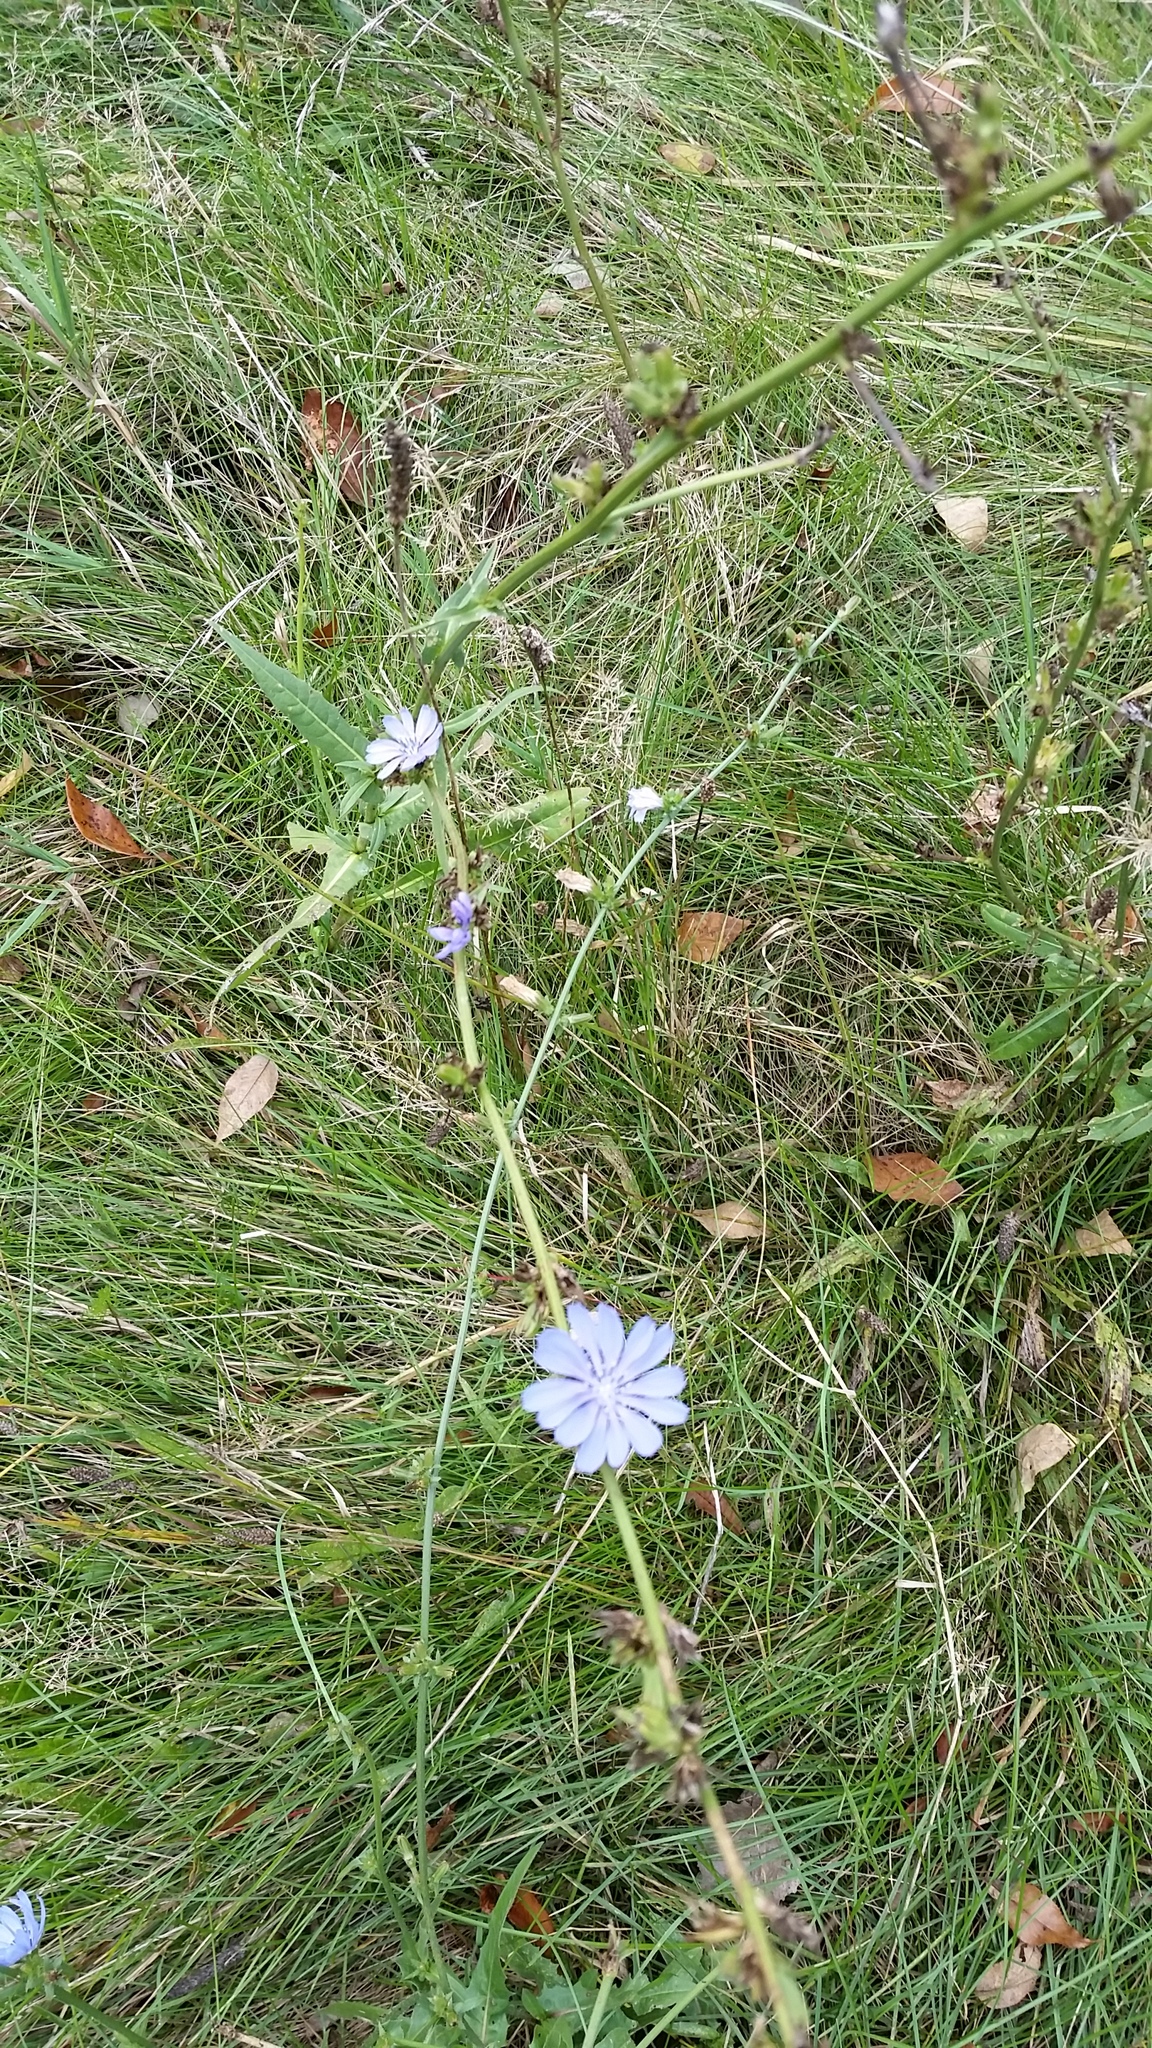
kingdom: Plantae
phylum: Tracheophyta
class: Magnoliopsida
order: Asterales
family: Asteraceae
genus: Cichorium
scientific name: Cichorium intybus
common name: Chicory
